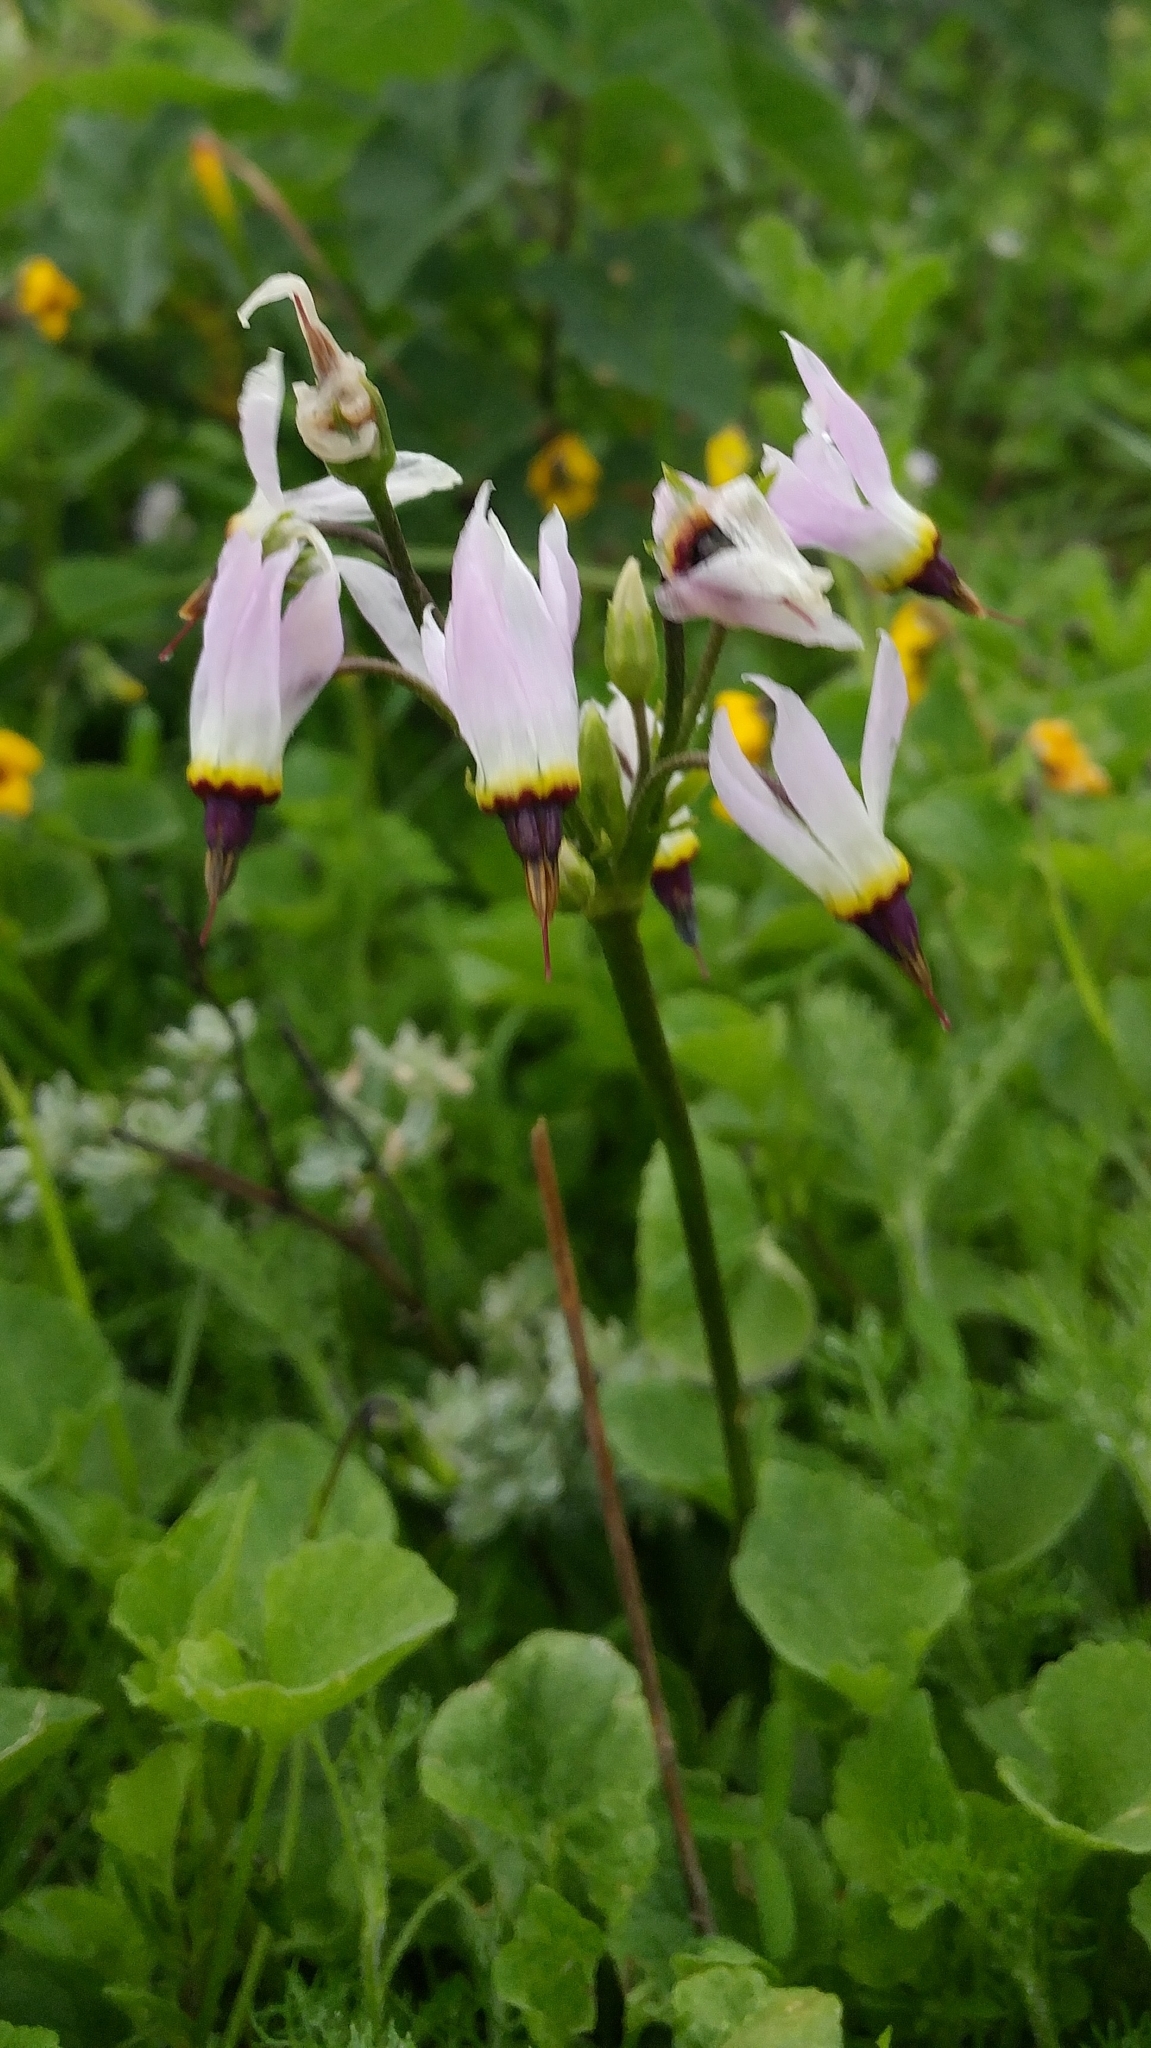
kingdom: Plantae
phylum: Tracheophyta
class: Magnoliopsida
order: Ericales
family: Primulaceae
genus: Dodecatheon
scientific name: Dodecatheon clevelandii
